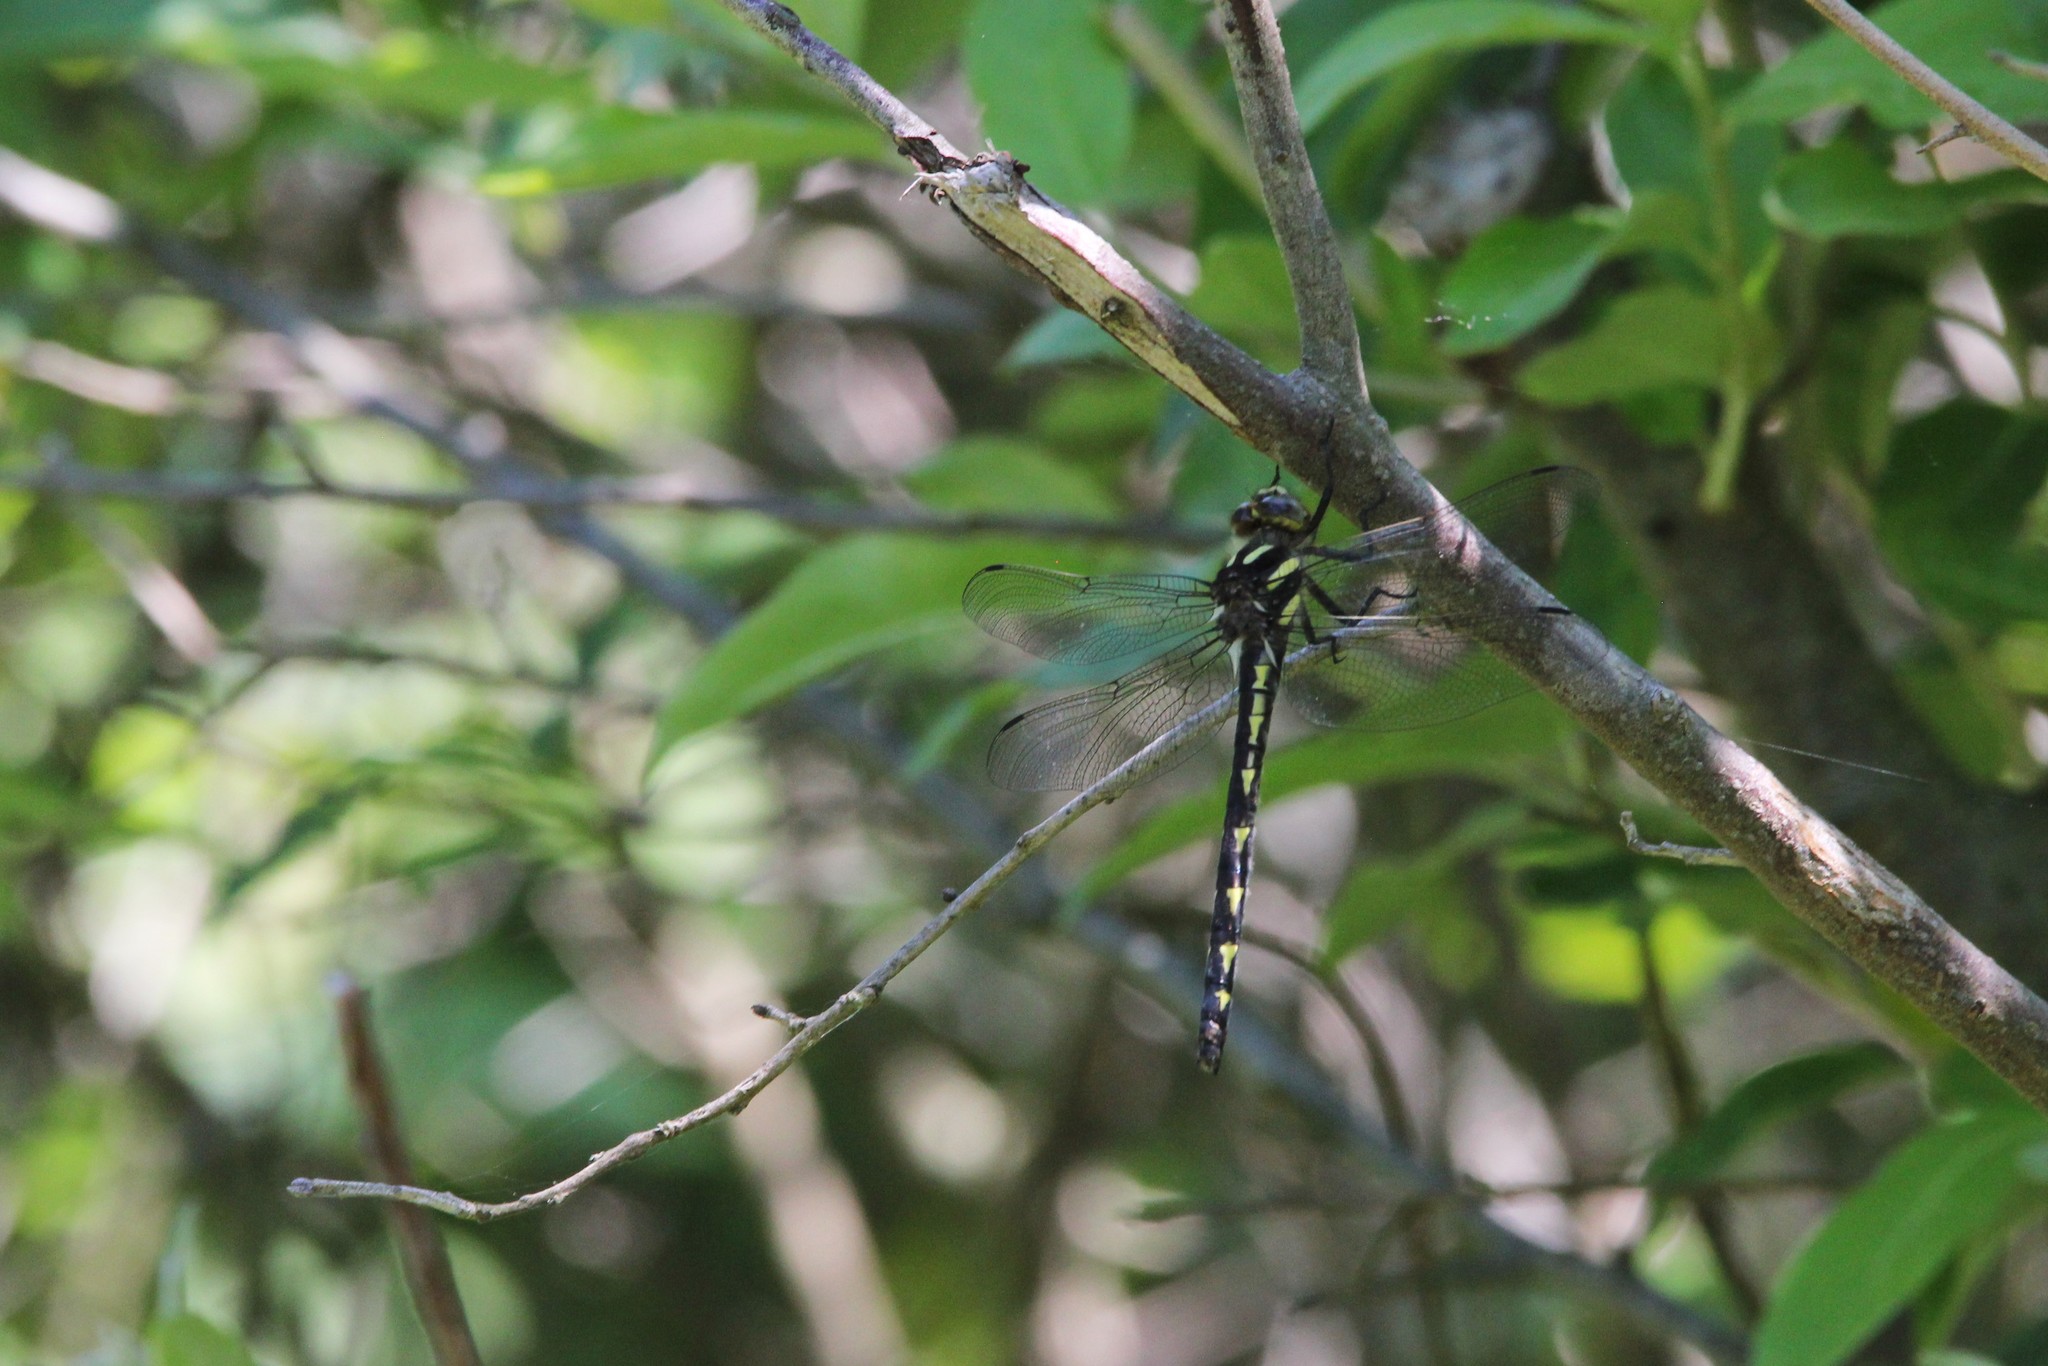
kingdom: Animalia
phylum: Arthropoda
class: Insecta
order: Odonata
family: Cordulegastridae
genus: Cordulegaster
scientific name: Cordulegaster diastatops
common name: Delta-spotted spiketail
